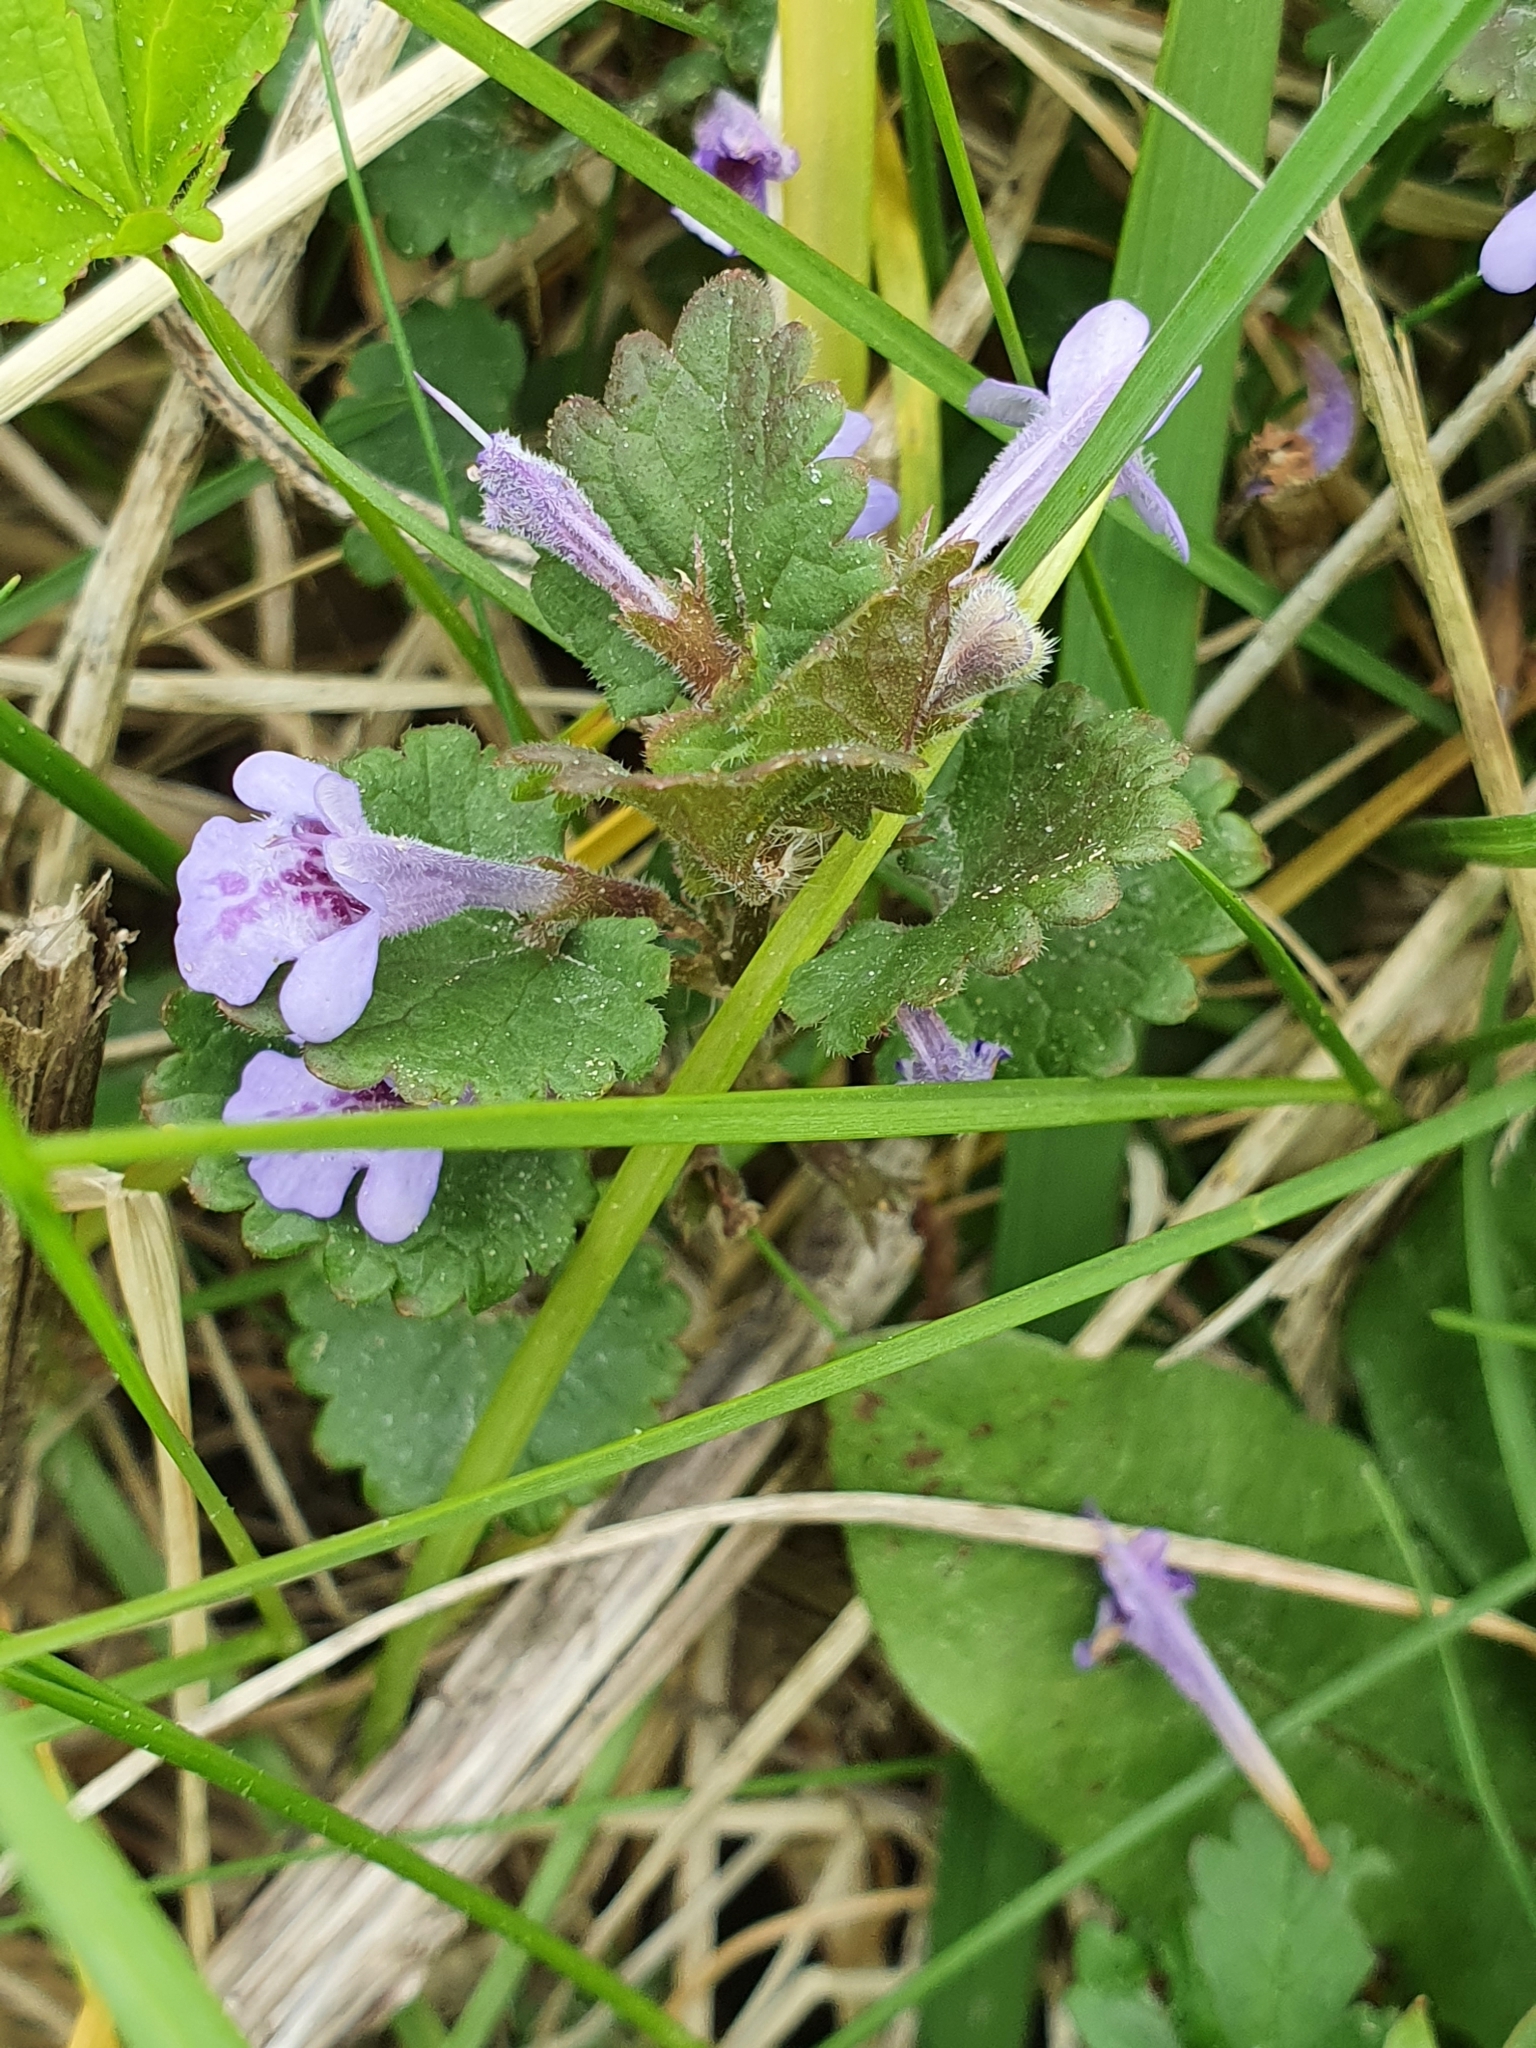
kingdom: Plantae
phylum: Tracheophyta
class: Magnoliopsida
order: Lamiales
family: Lamiaceae
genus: Glechoma
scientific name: Glechoma hederacea
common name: Ground ivy
